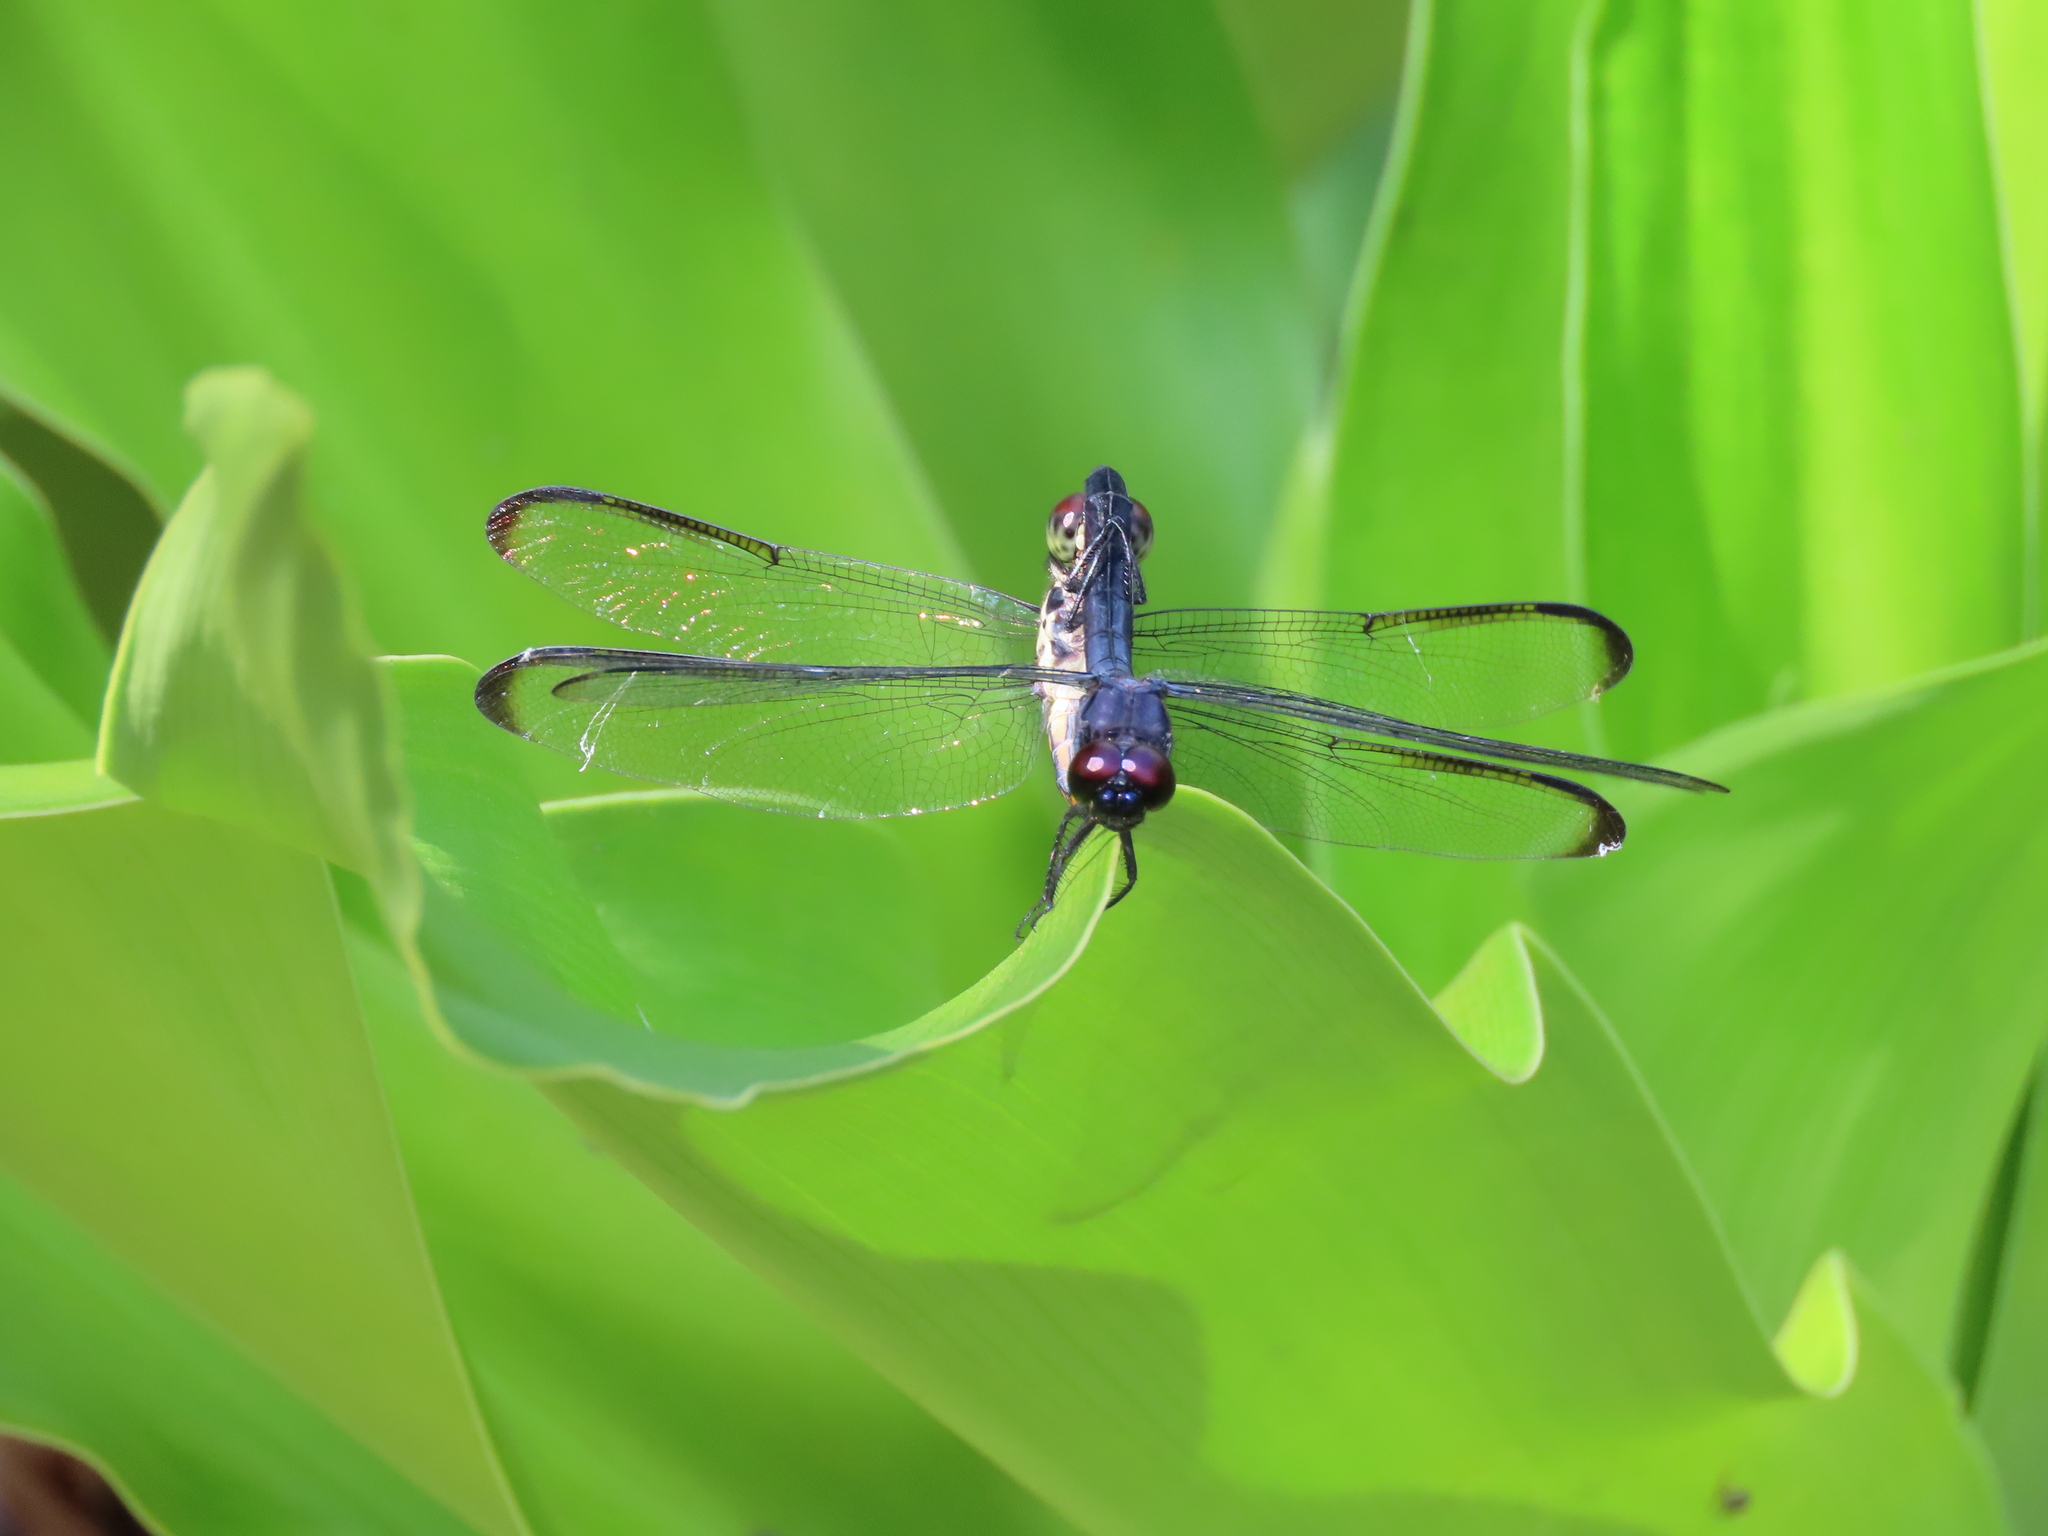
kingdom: Animalia
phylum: Arthropoda
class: Insecta
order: Odonata
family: Libellulidae
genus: Libellula
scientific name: Libellula incesta
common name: Slaty skimmer
